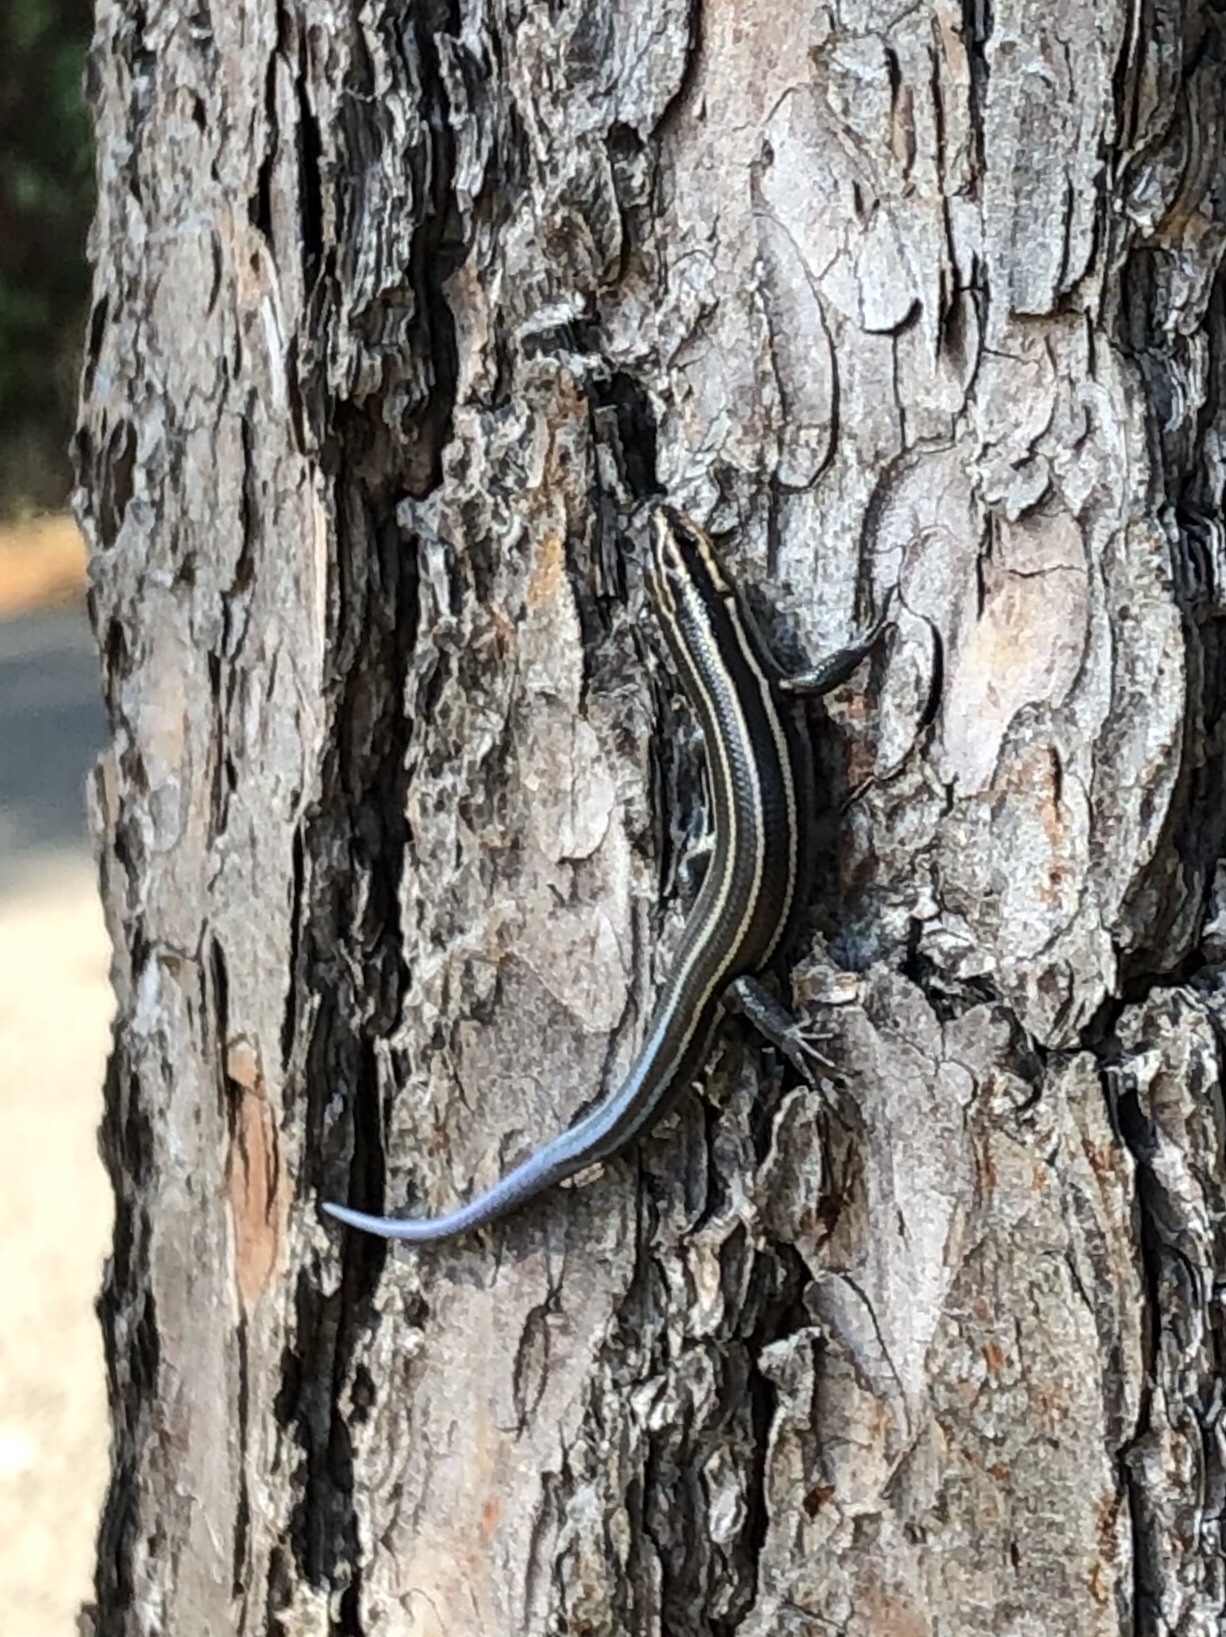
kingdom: Animalia
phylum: Chordata
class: Squamata
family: Scincidae
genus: Plestiodon
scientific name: Plestiodon fasciatus
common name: Five-lined skink
